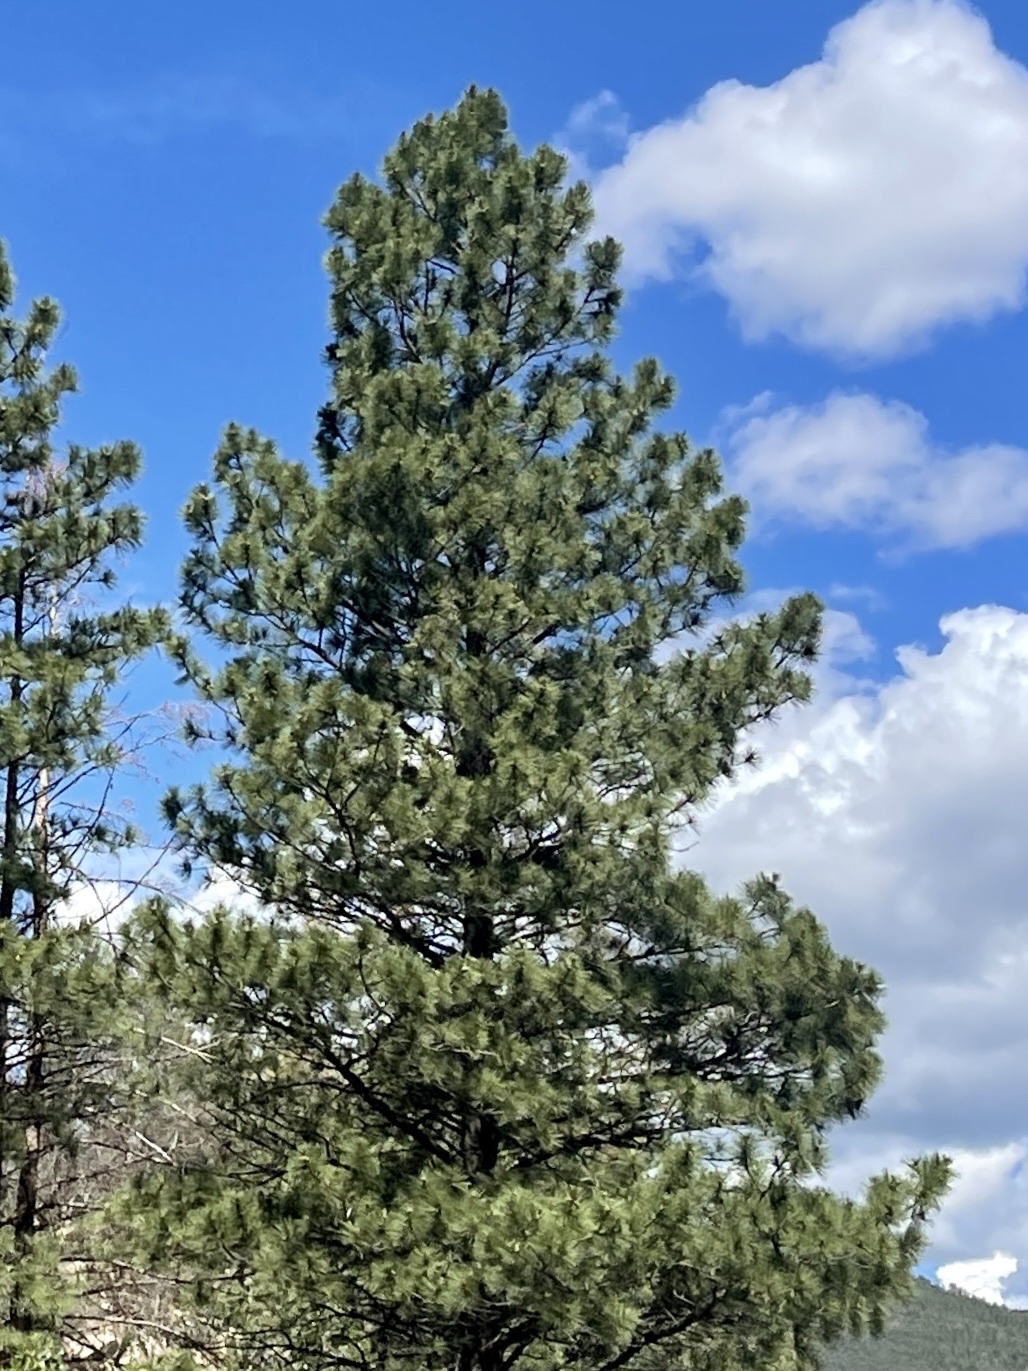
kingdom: Plantae
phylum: Tracheophyta
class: Pinopsida
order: Pinales
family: Pinaceae
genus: Pinus
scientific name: Pinus ponderosa
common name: Western yellow-pine
